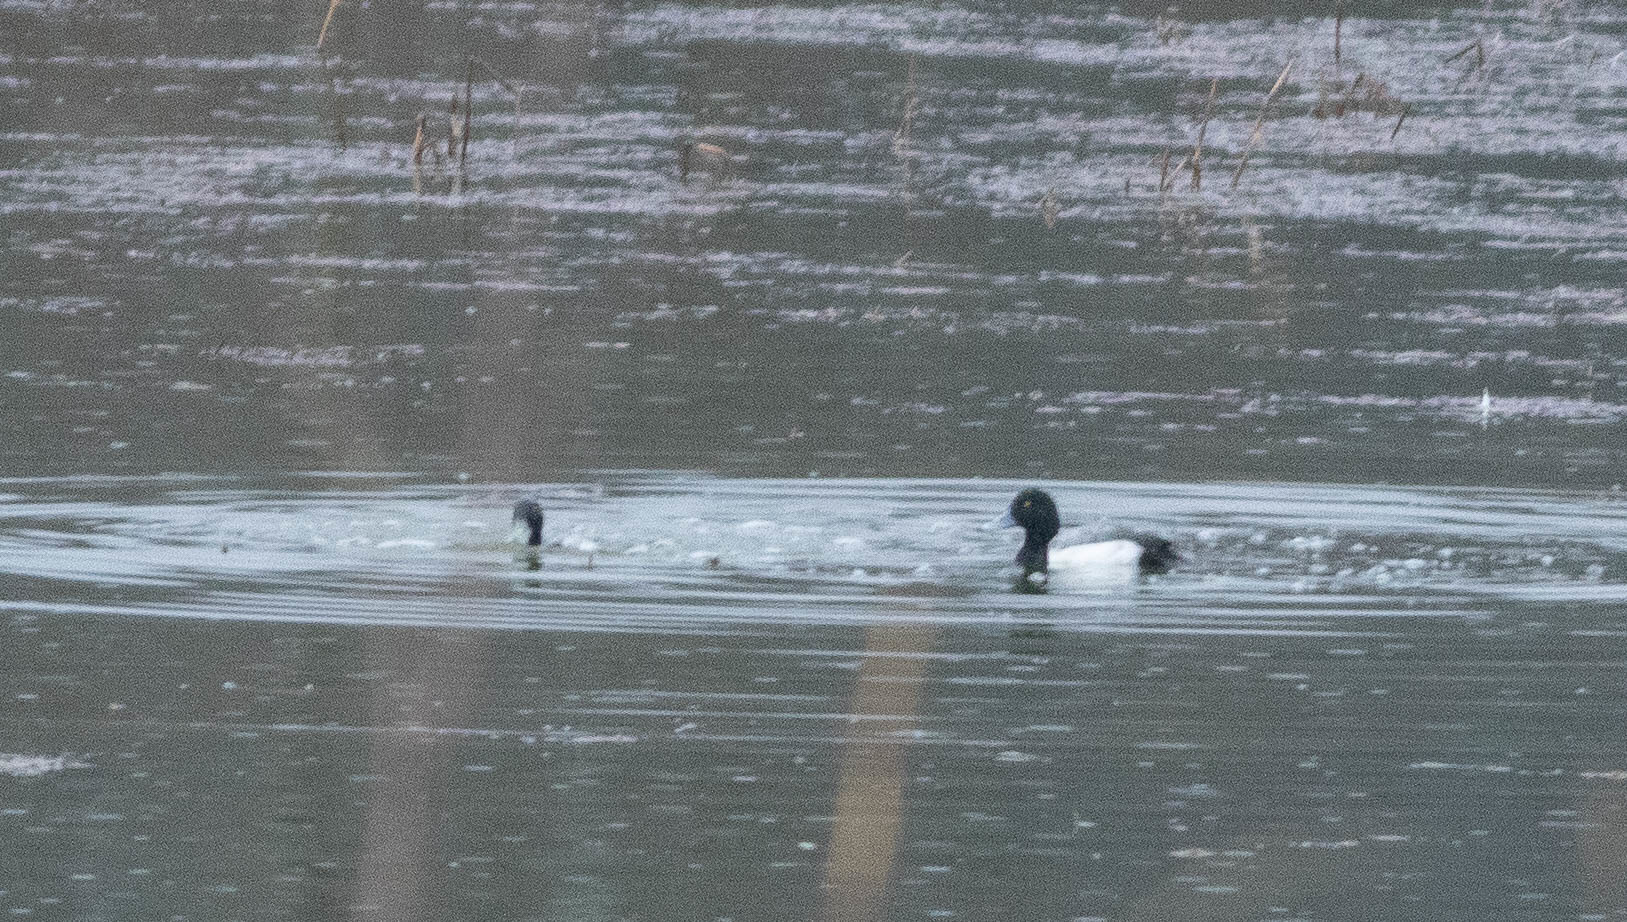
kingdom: Animalia
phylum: Chordata
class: Aves
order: Anseriformes
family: Anatidae
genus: Aythya
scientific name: Aythya marila
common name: Greater scaup
